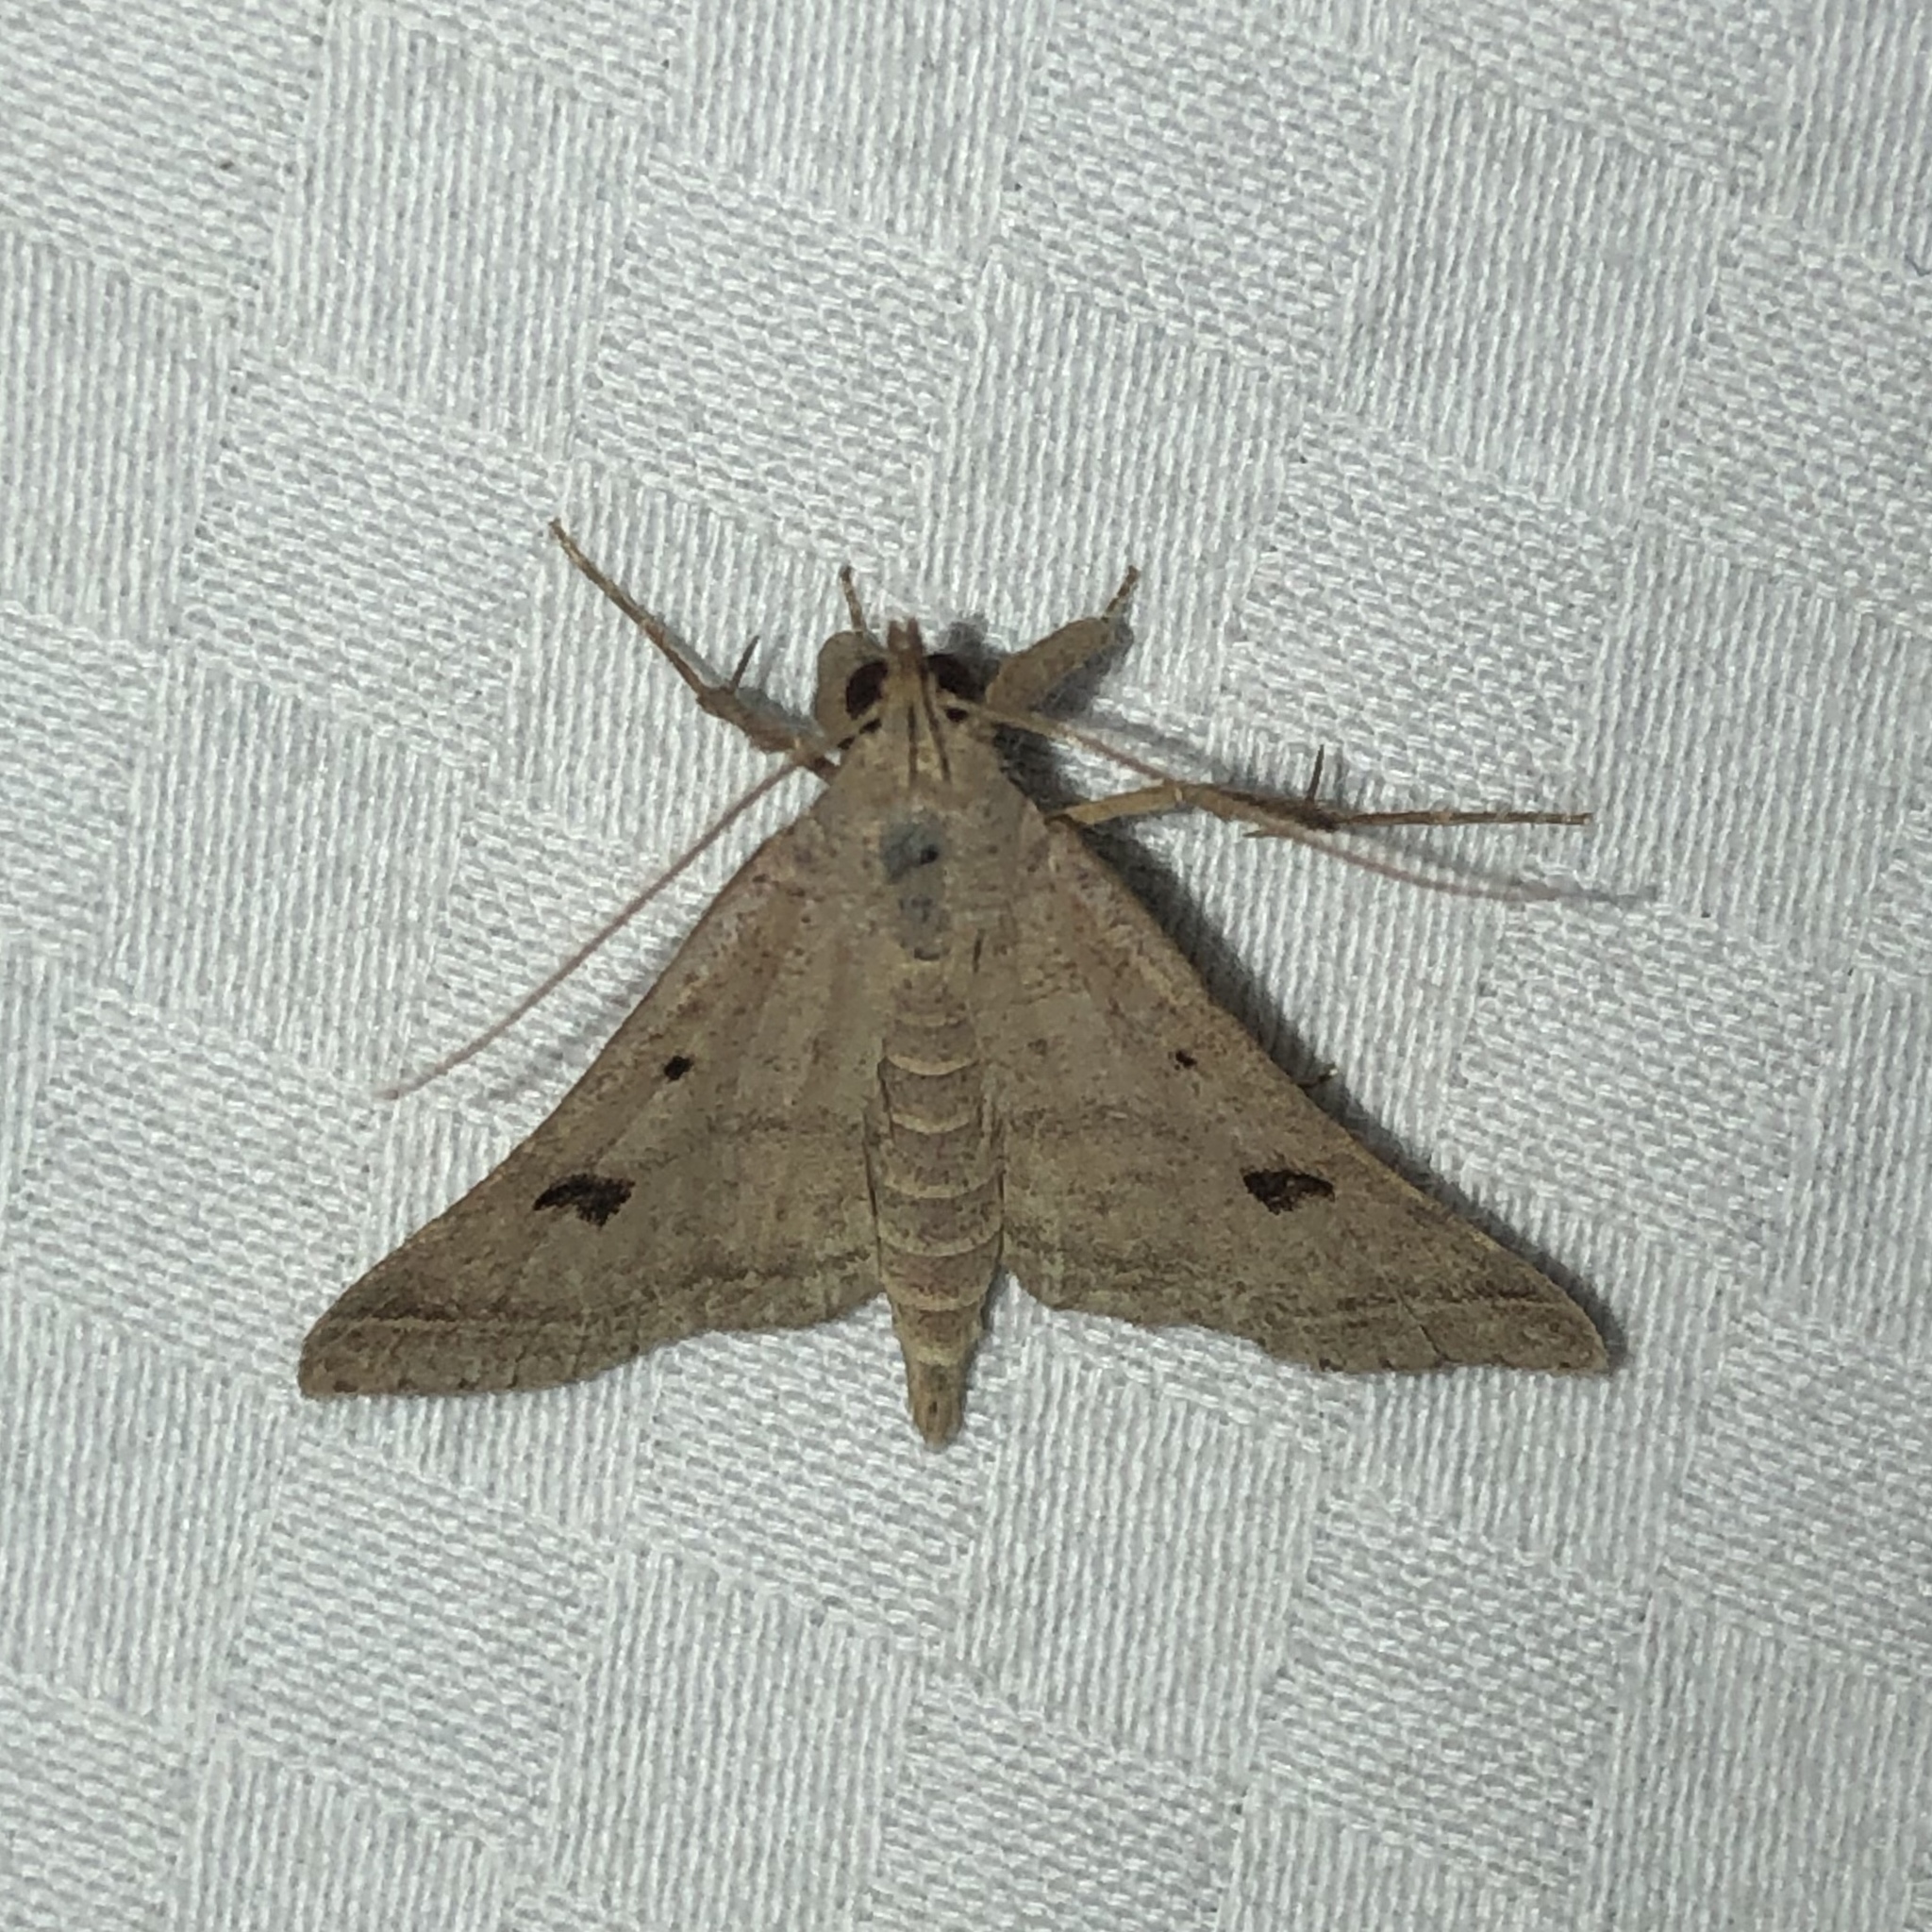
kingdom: Animalia
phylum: Arthropoda
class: Insecta
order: Lepidoptera
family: Erebidae
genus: Bleptina
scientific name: Bleptina caradrinalis
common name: Bent-winged owlet
